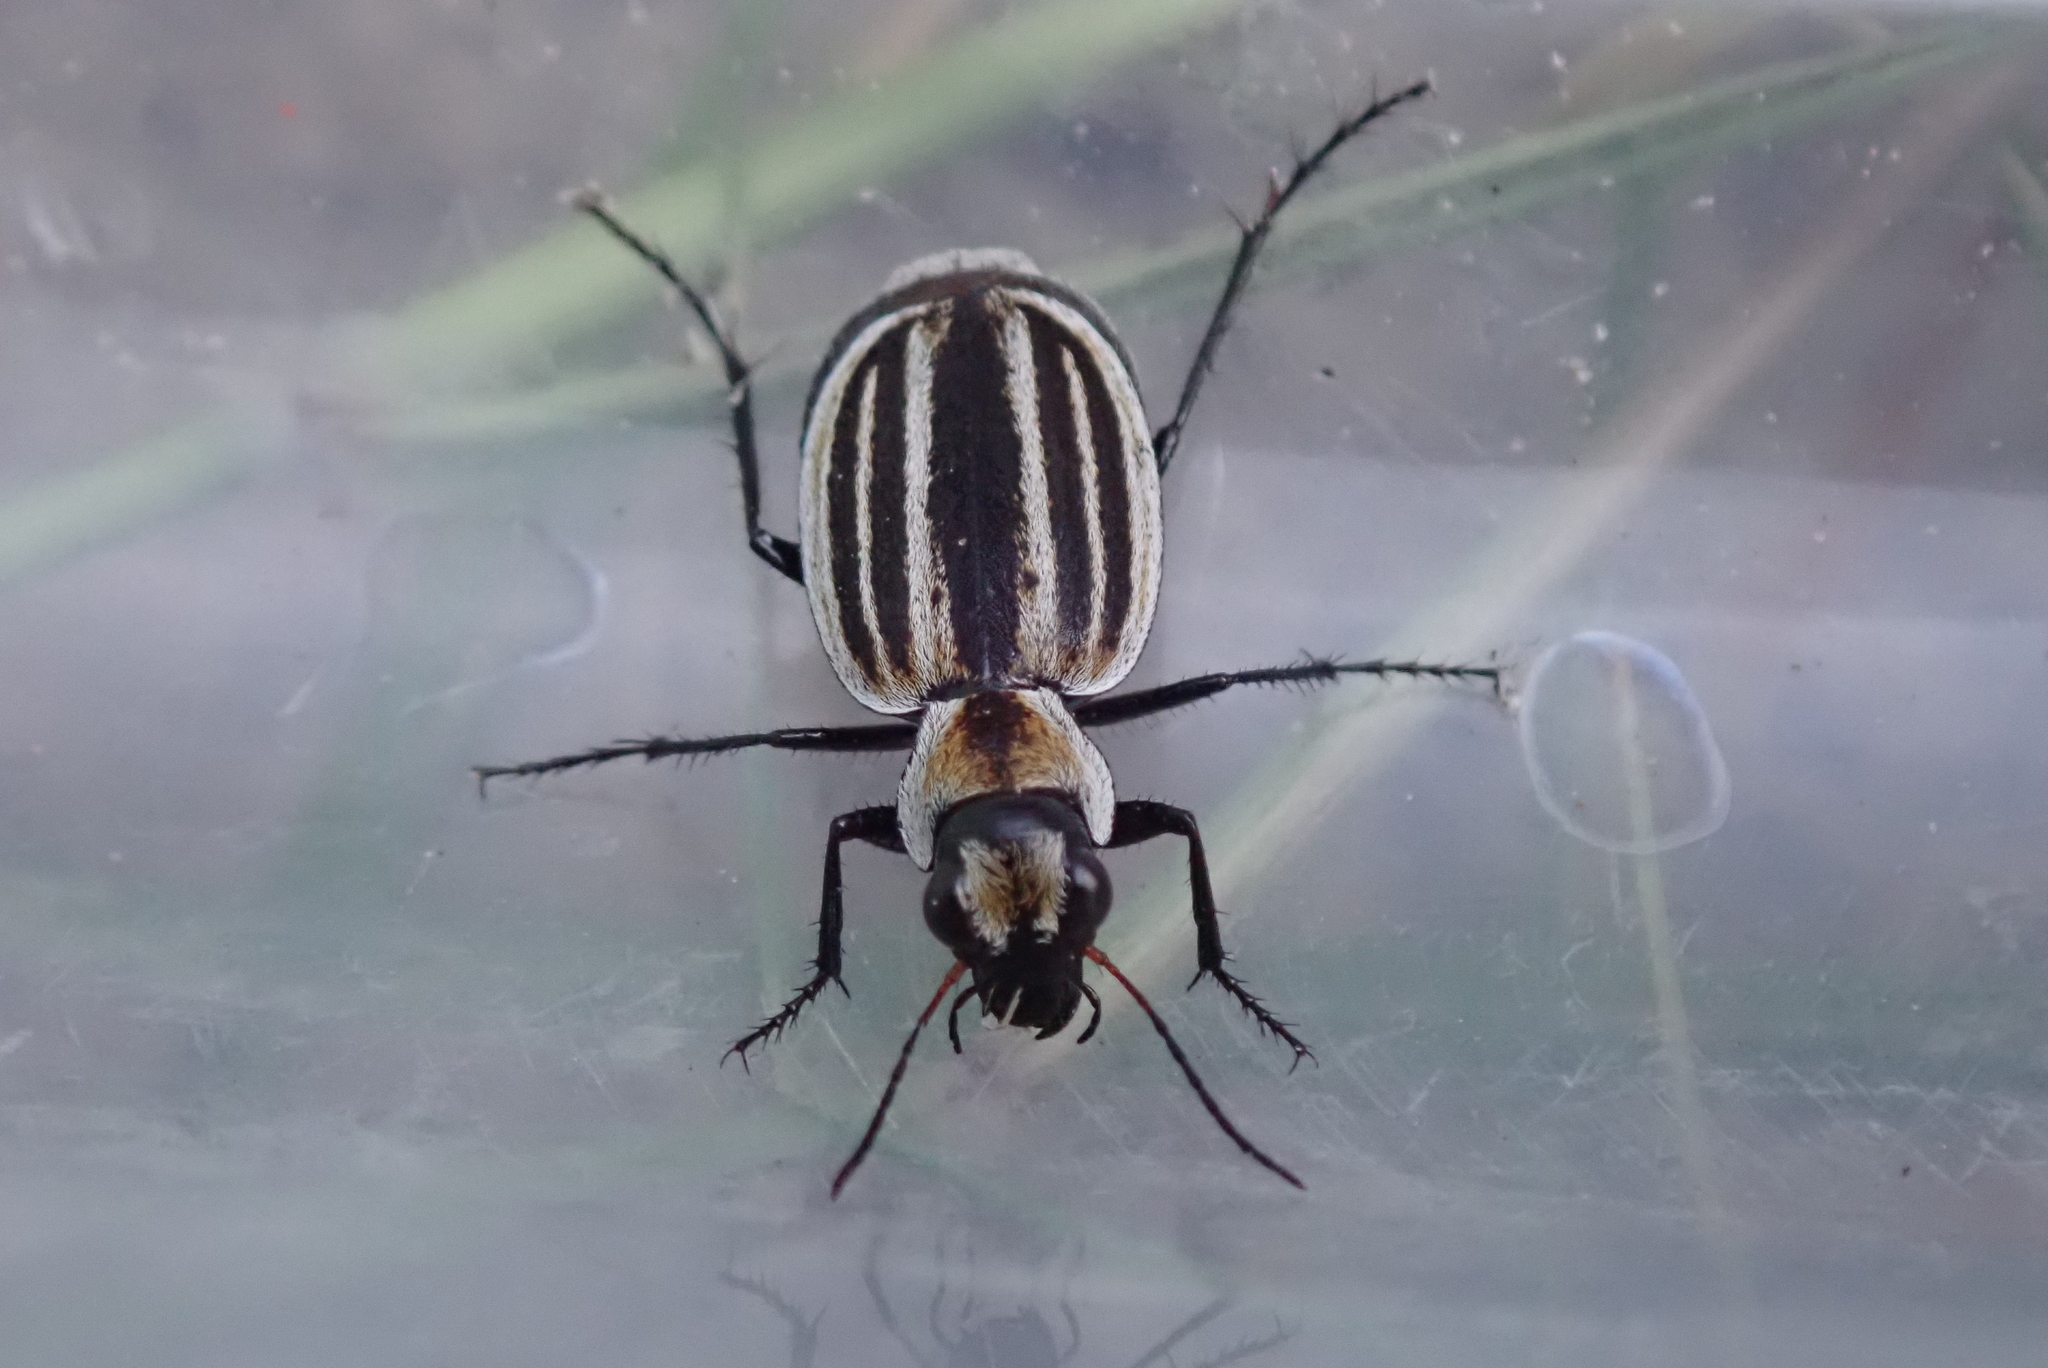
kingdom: Animalia
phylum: Arthropoda
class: Insecta
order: Coleoptera
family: Carabidae
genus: Graphipterus
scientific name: Graphipterus dolosus
